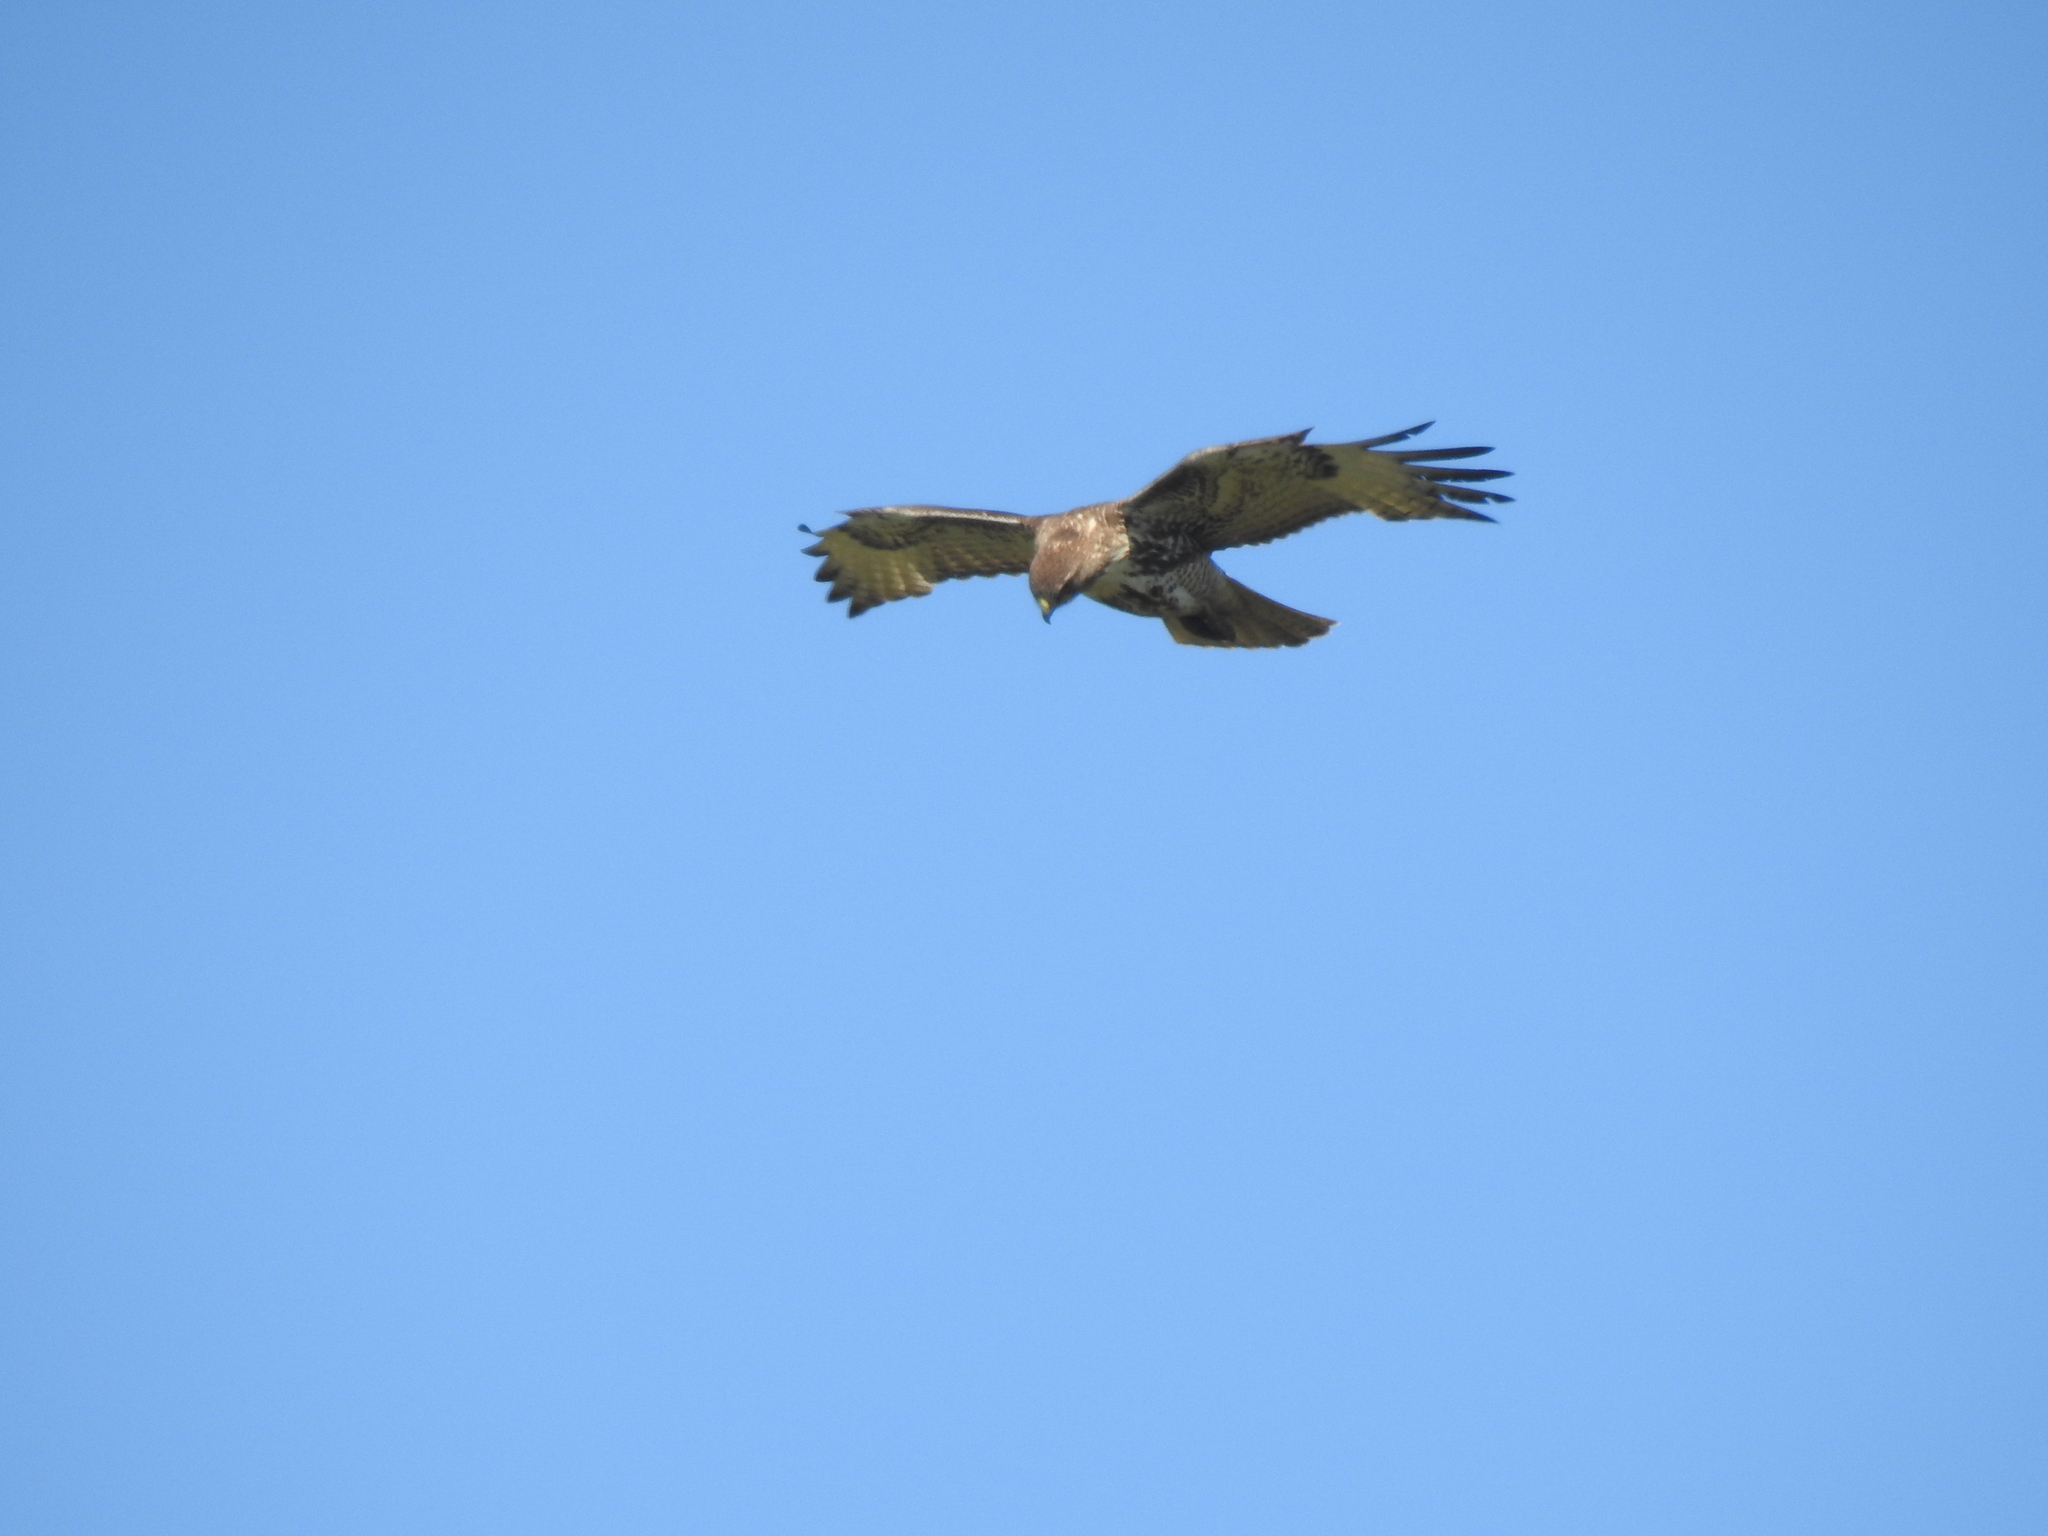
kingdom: Animalia
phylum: Chordata
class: Aves
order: Accipitriformes
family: Accipitridae
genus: Buteo
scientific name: Buteo jamaicensis
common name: Red-tailed hawk
